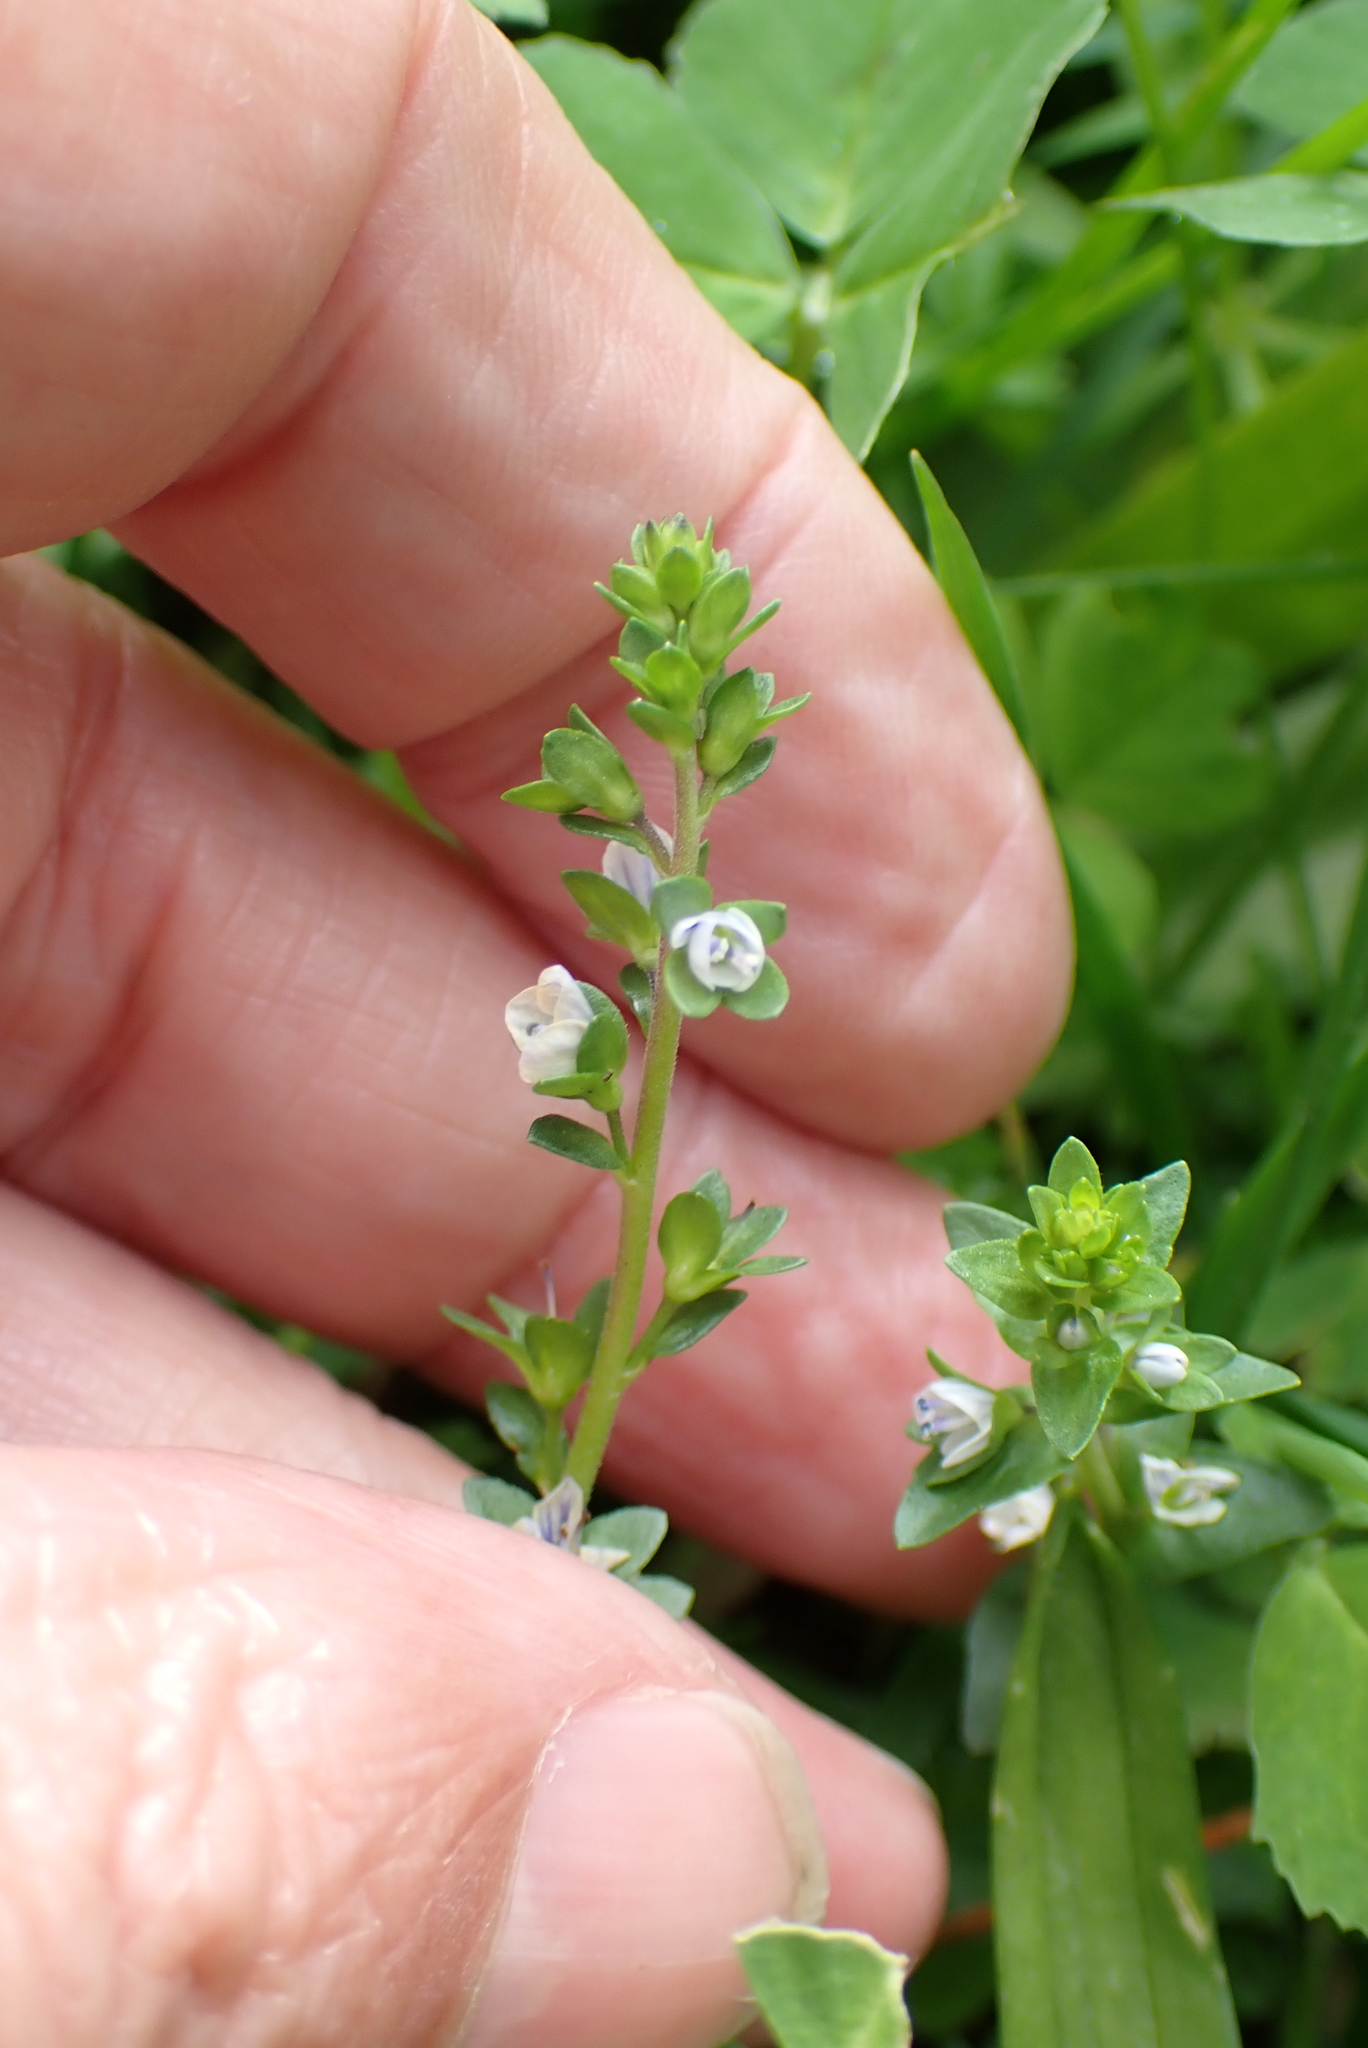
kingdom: Plantae
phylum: Tracheophyta
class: Magnoliopsida
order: Lamiales
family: Plantaginaceae
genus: Veronica
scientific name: Veronica serpyllifolia
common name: Thyme-leaved speedwell
